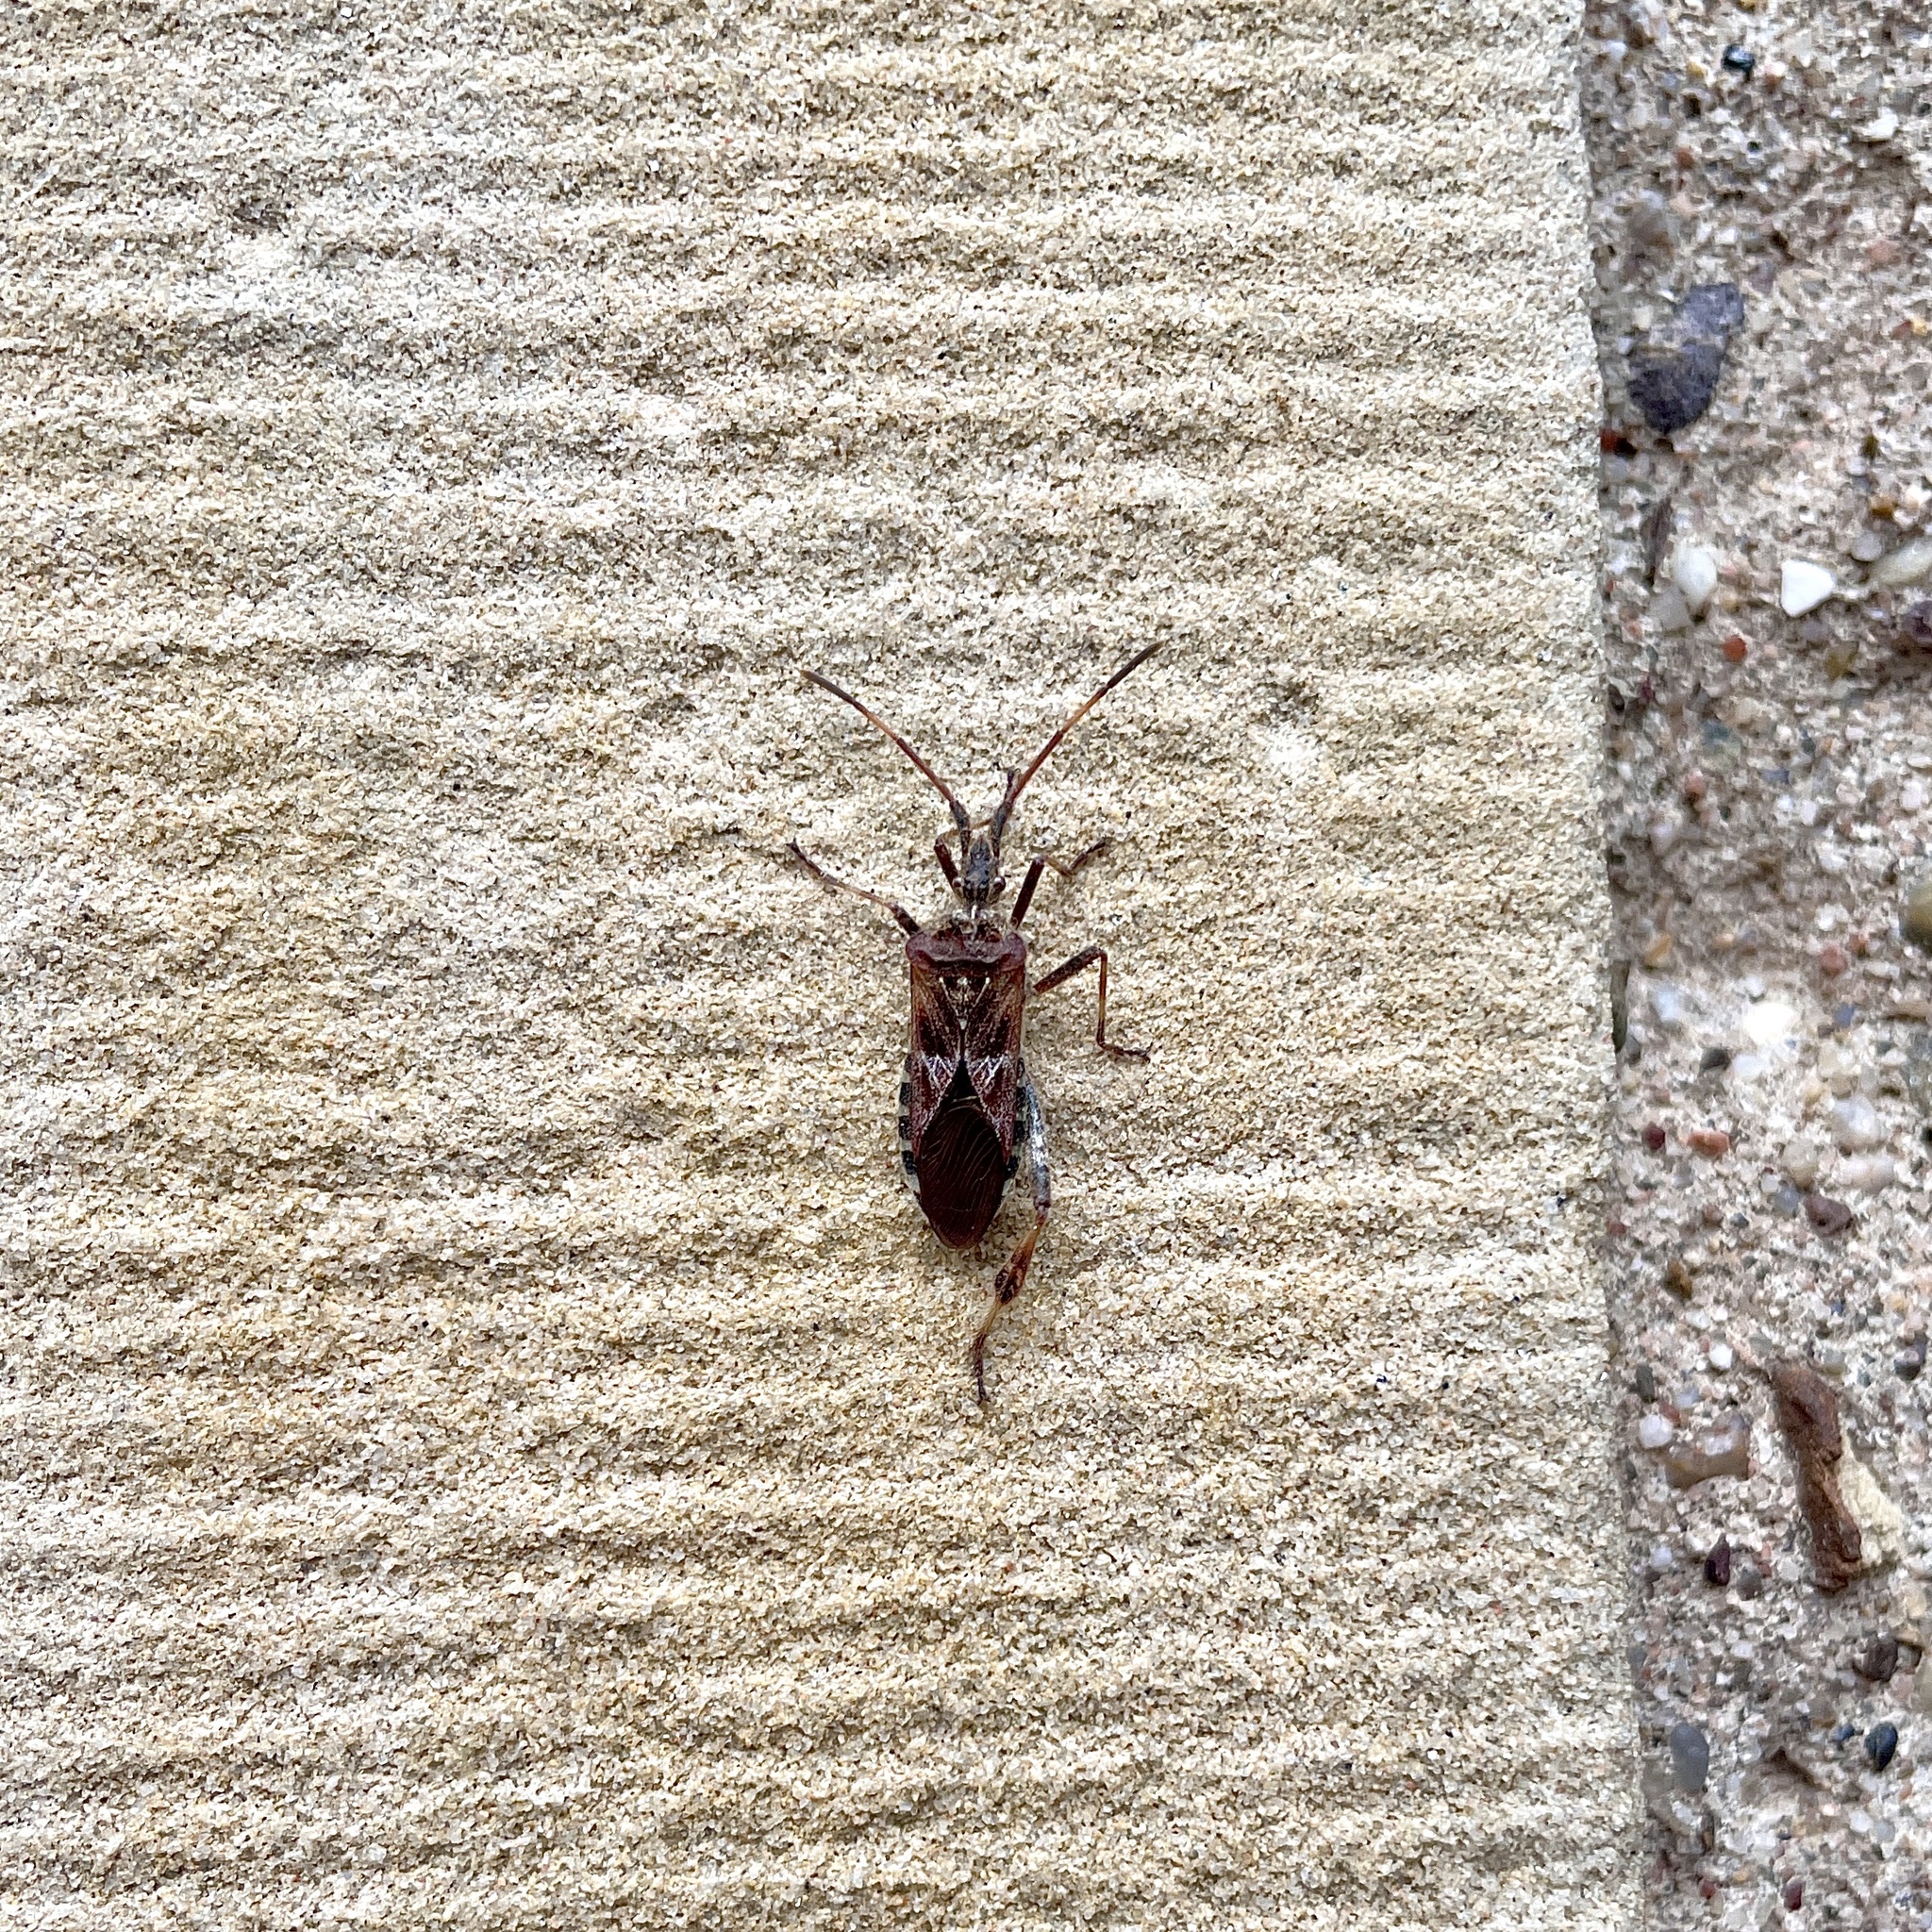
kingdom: Animalia
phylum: Arthropoda
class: Insecta
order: Hemiptera
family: Coreidae
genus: Leptoglossus
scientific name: Leptoglossus occidentalis
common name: Western conifer-seed bug
